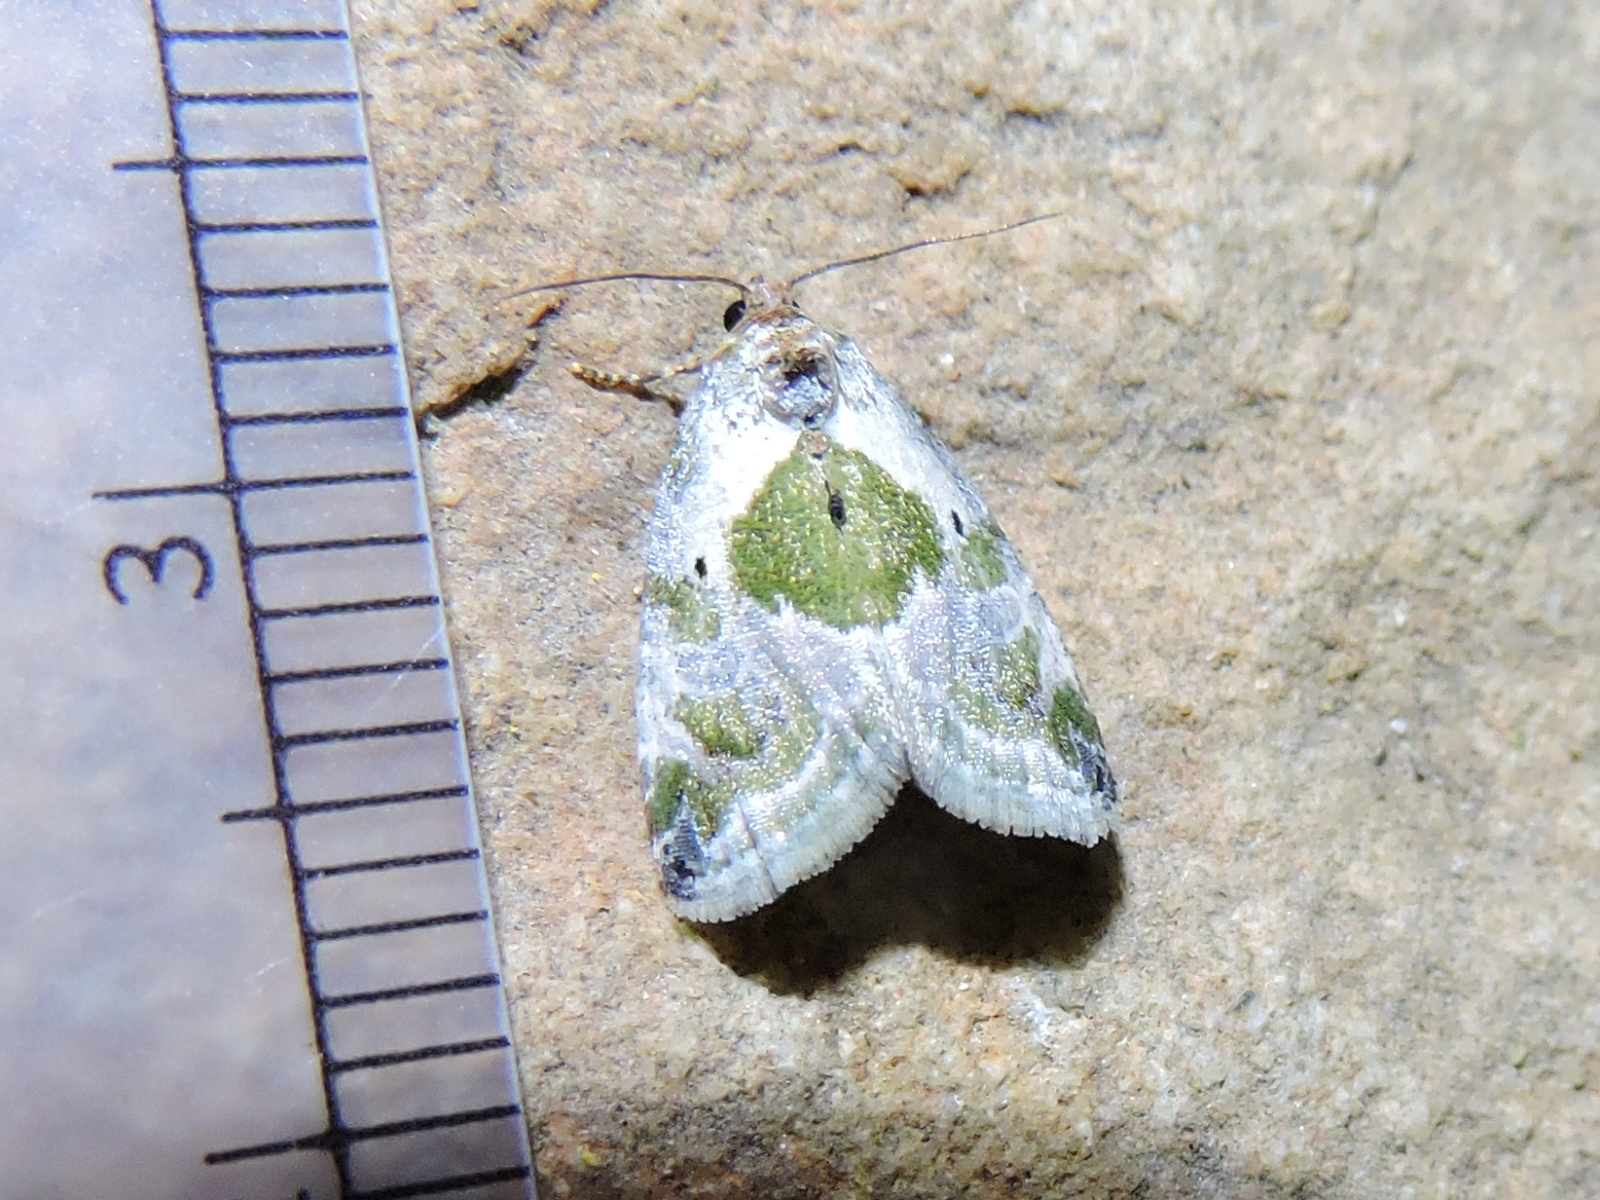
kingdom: Animalia
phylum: Arthropoda
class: Insecta
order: Lepidoptera
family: Noctuidae
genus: Maliattha
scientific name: Maliattha synochitis
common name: Black-dotted glyph
